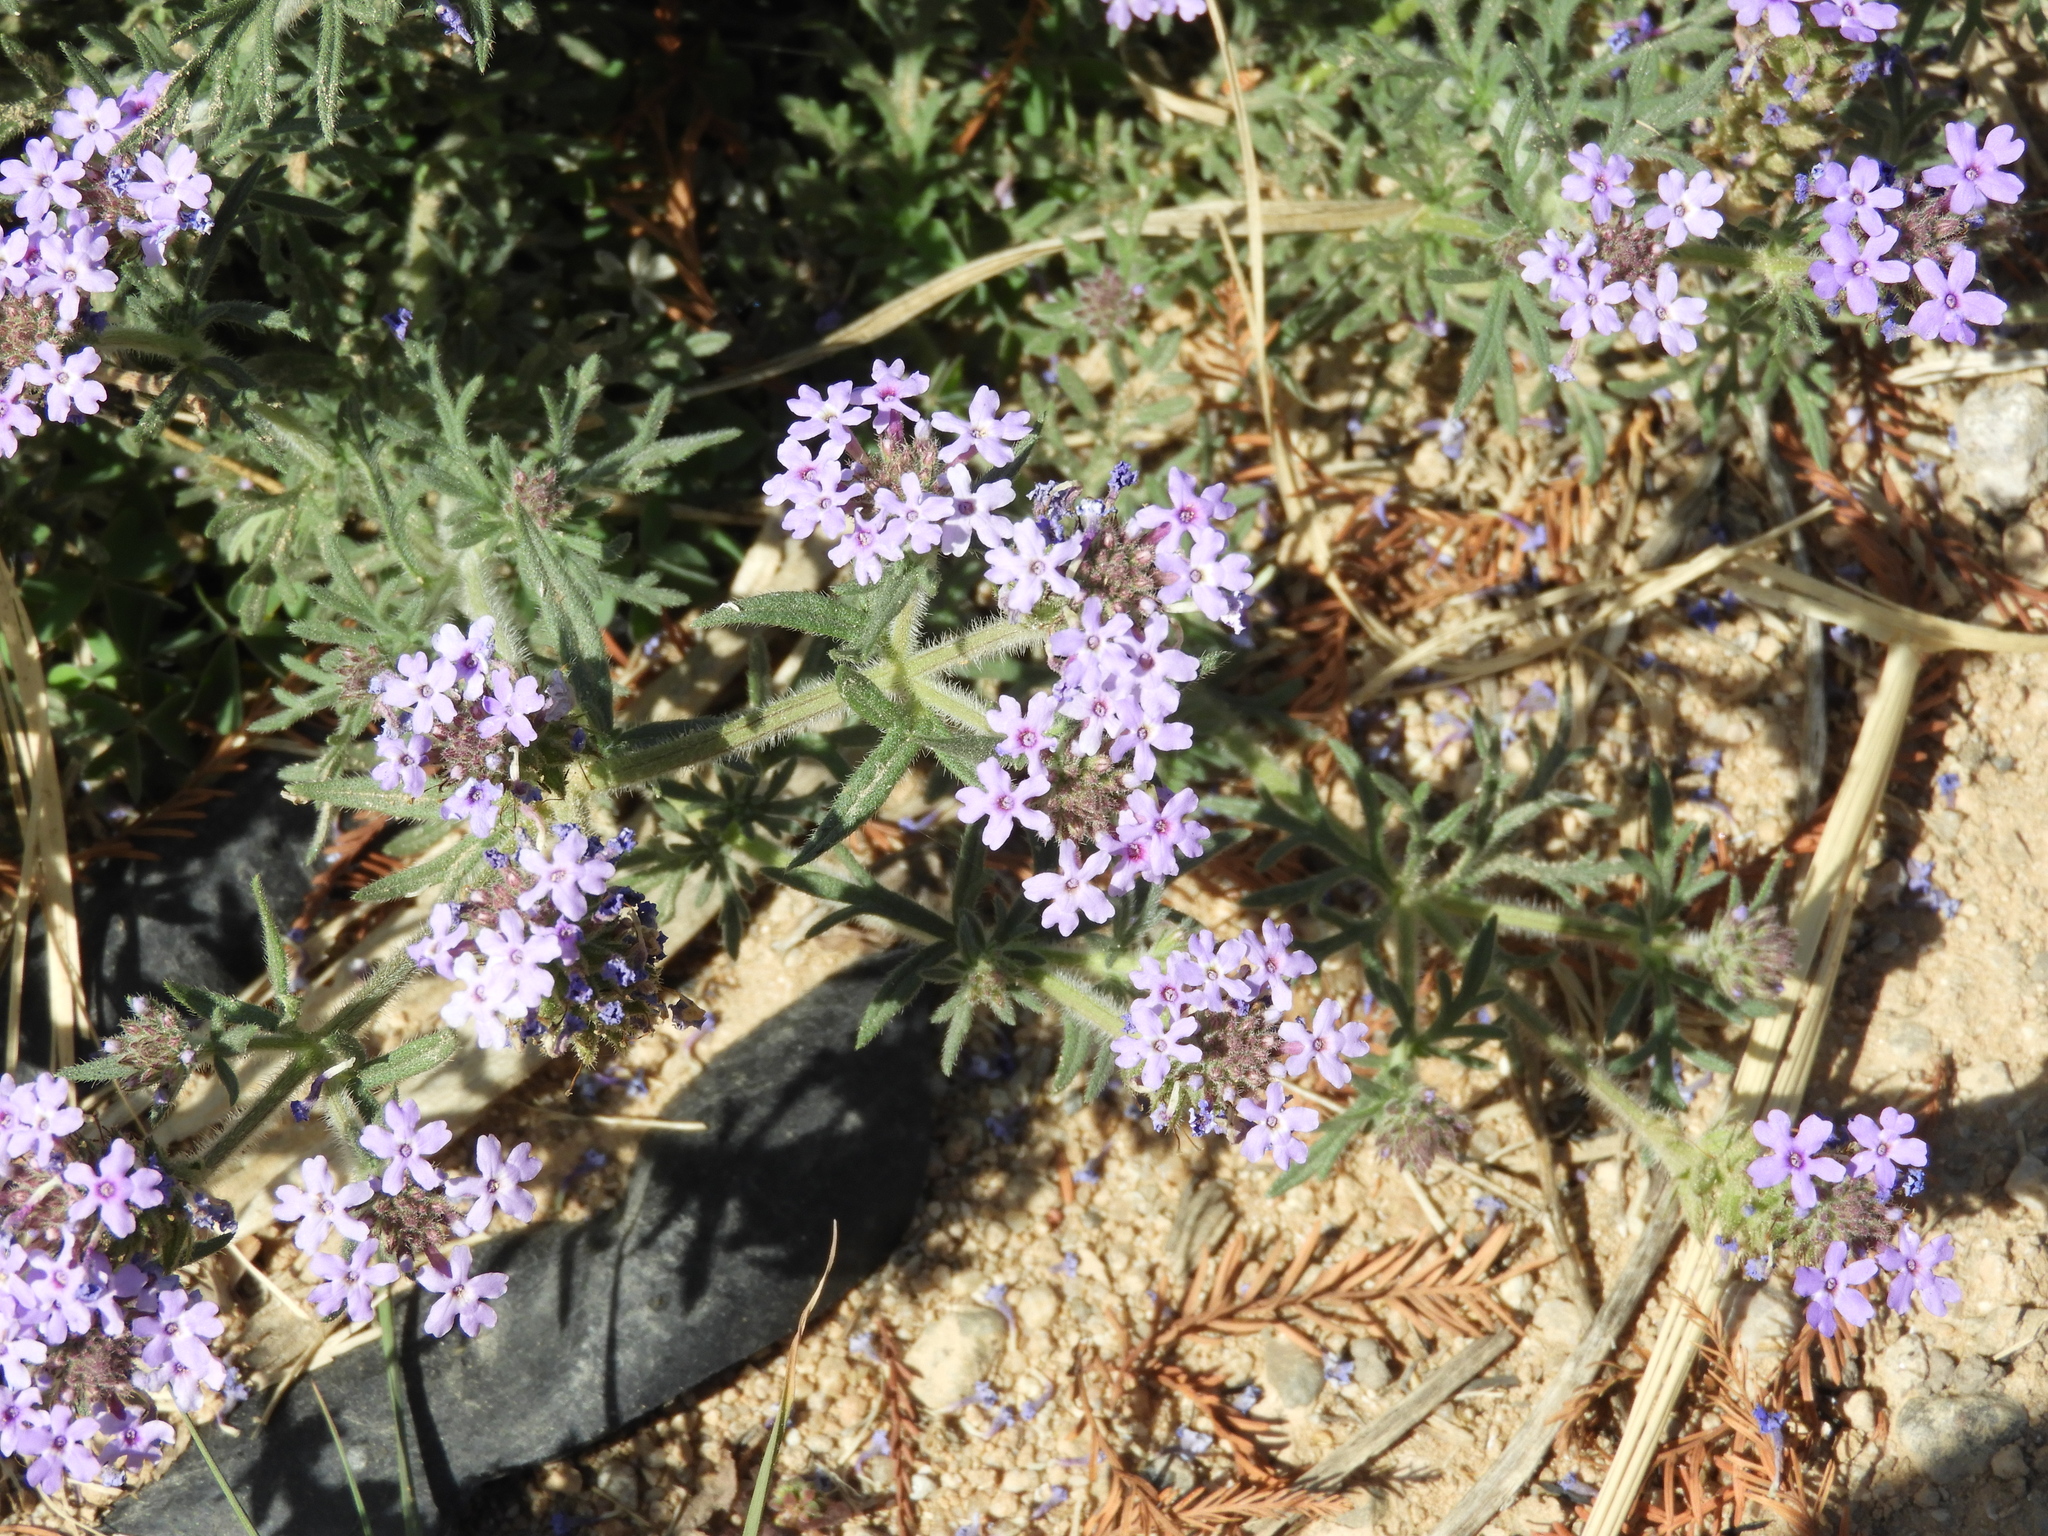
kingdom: Plantae
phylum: Tracheophyta
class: Magnoliopsida
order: Lamiales
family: Verbenaceae
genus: Verbena
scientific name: Verbena bipinnatifida
